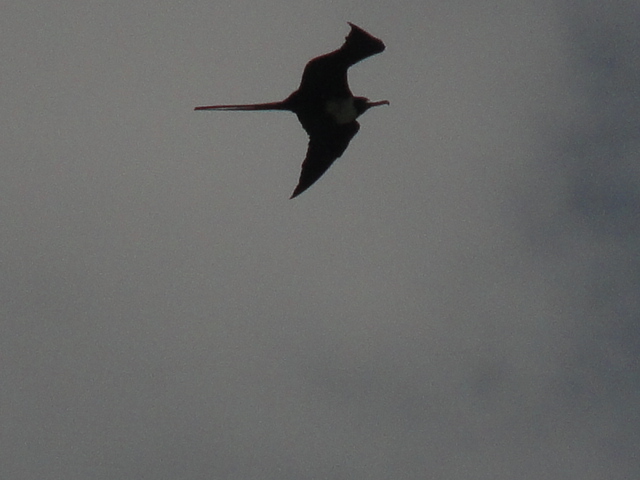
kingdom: Animalia
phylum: Chordata
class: Aves
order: Suliformes
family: Fregatidae
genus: Fregata
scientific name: Fregata magnificens
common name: Magnificent frigatebird
